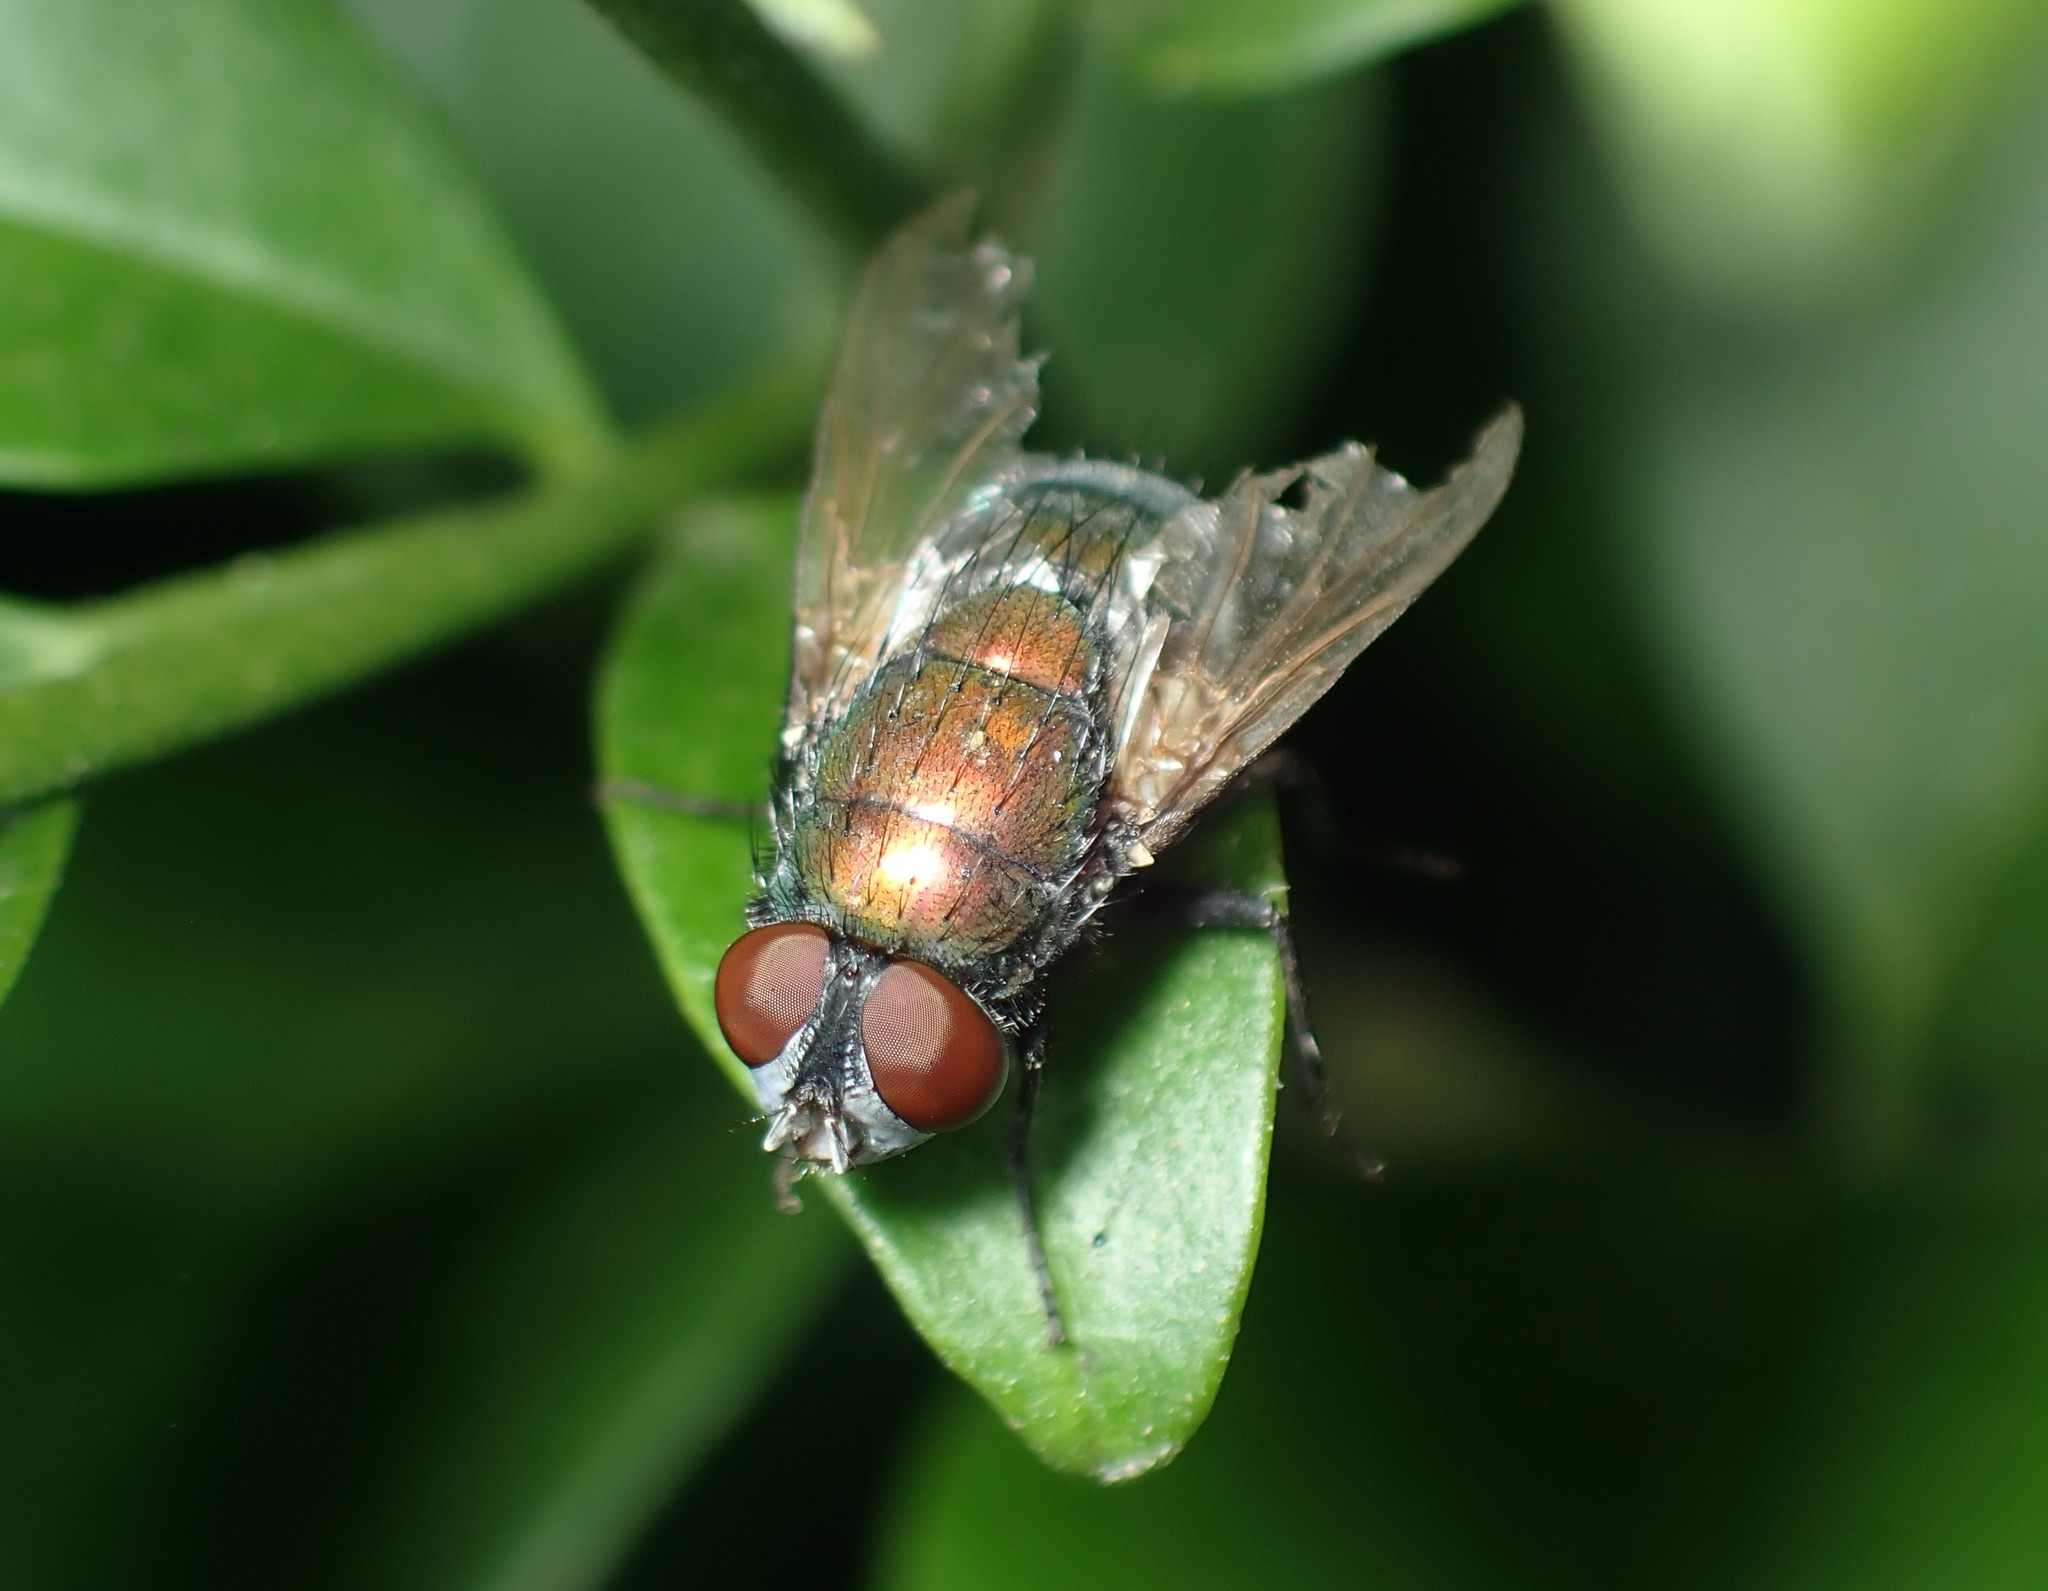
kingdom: Animalia
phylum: Arthropoda
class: Insecta
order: Diptera
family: Calliphoridae
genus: Lucilia
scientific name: Lucilia sericata
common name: Blow fly
